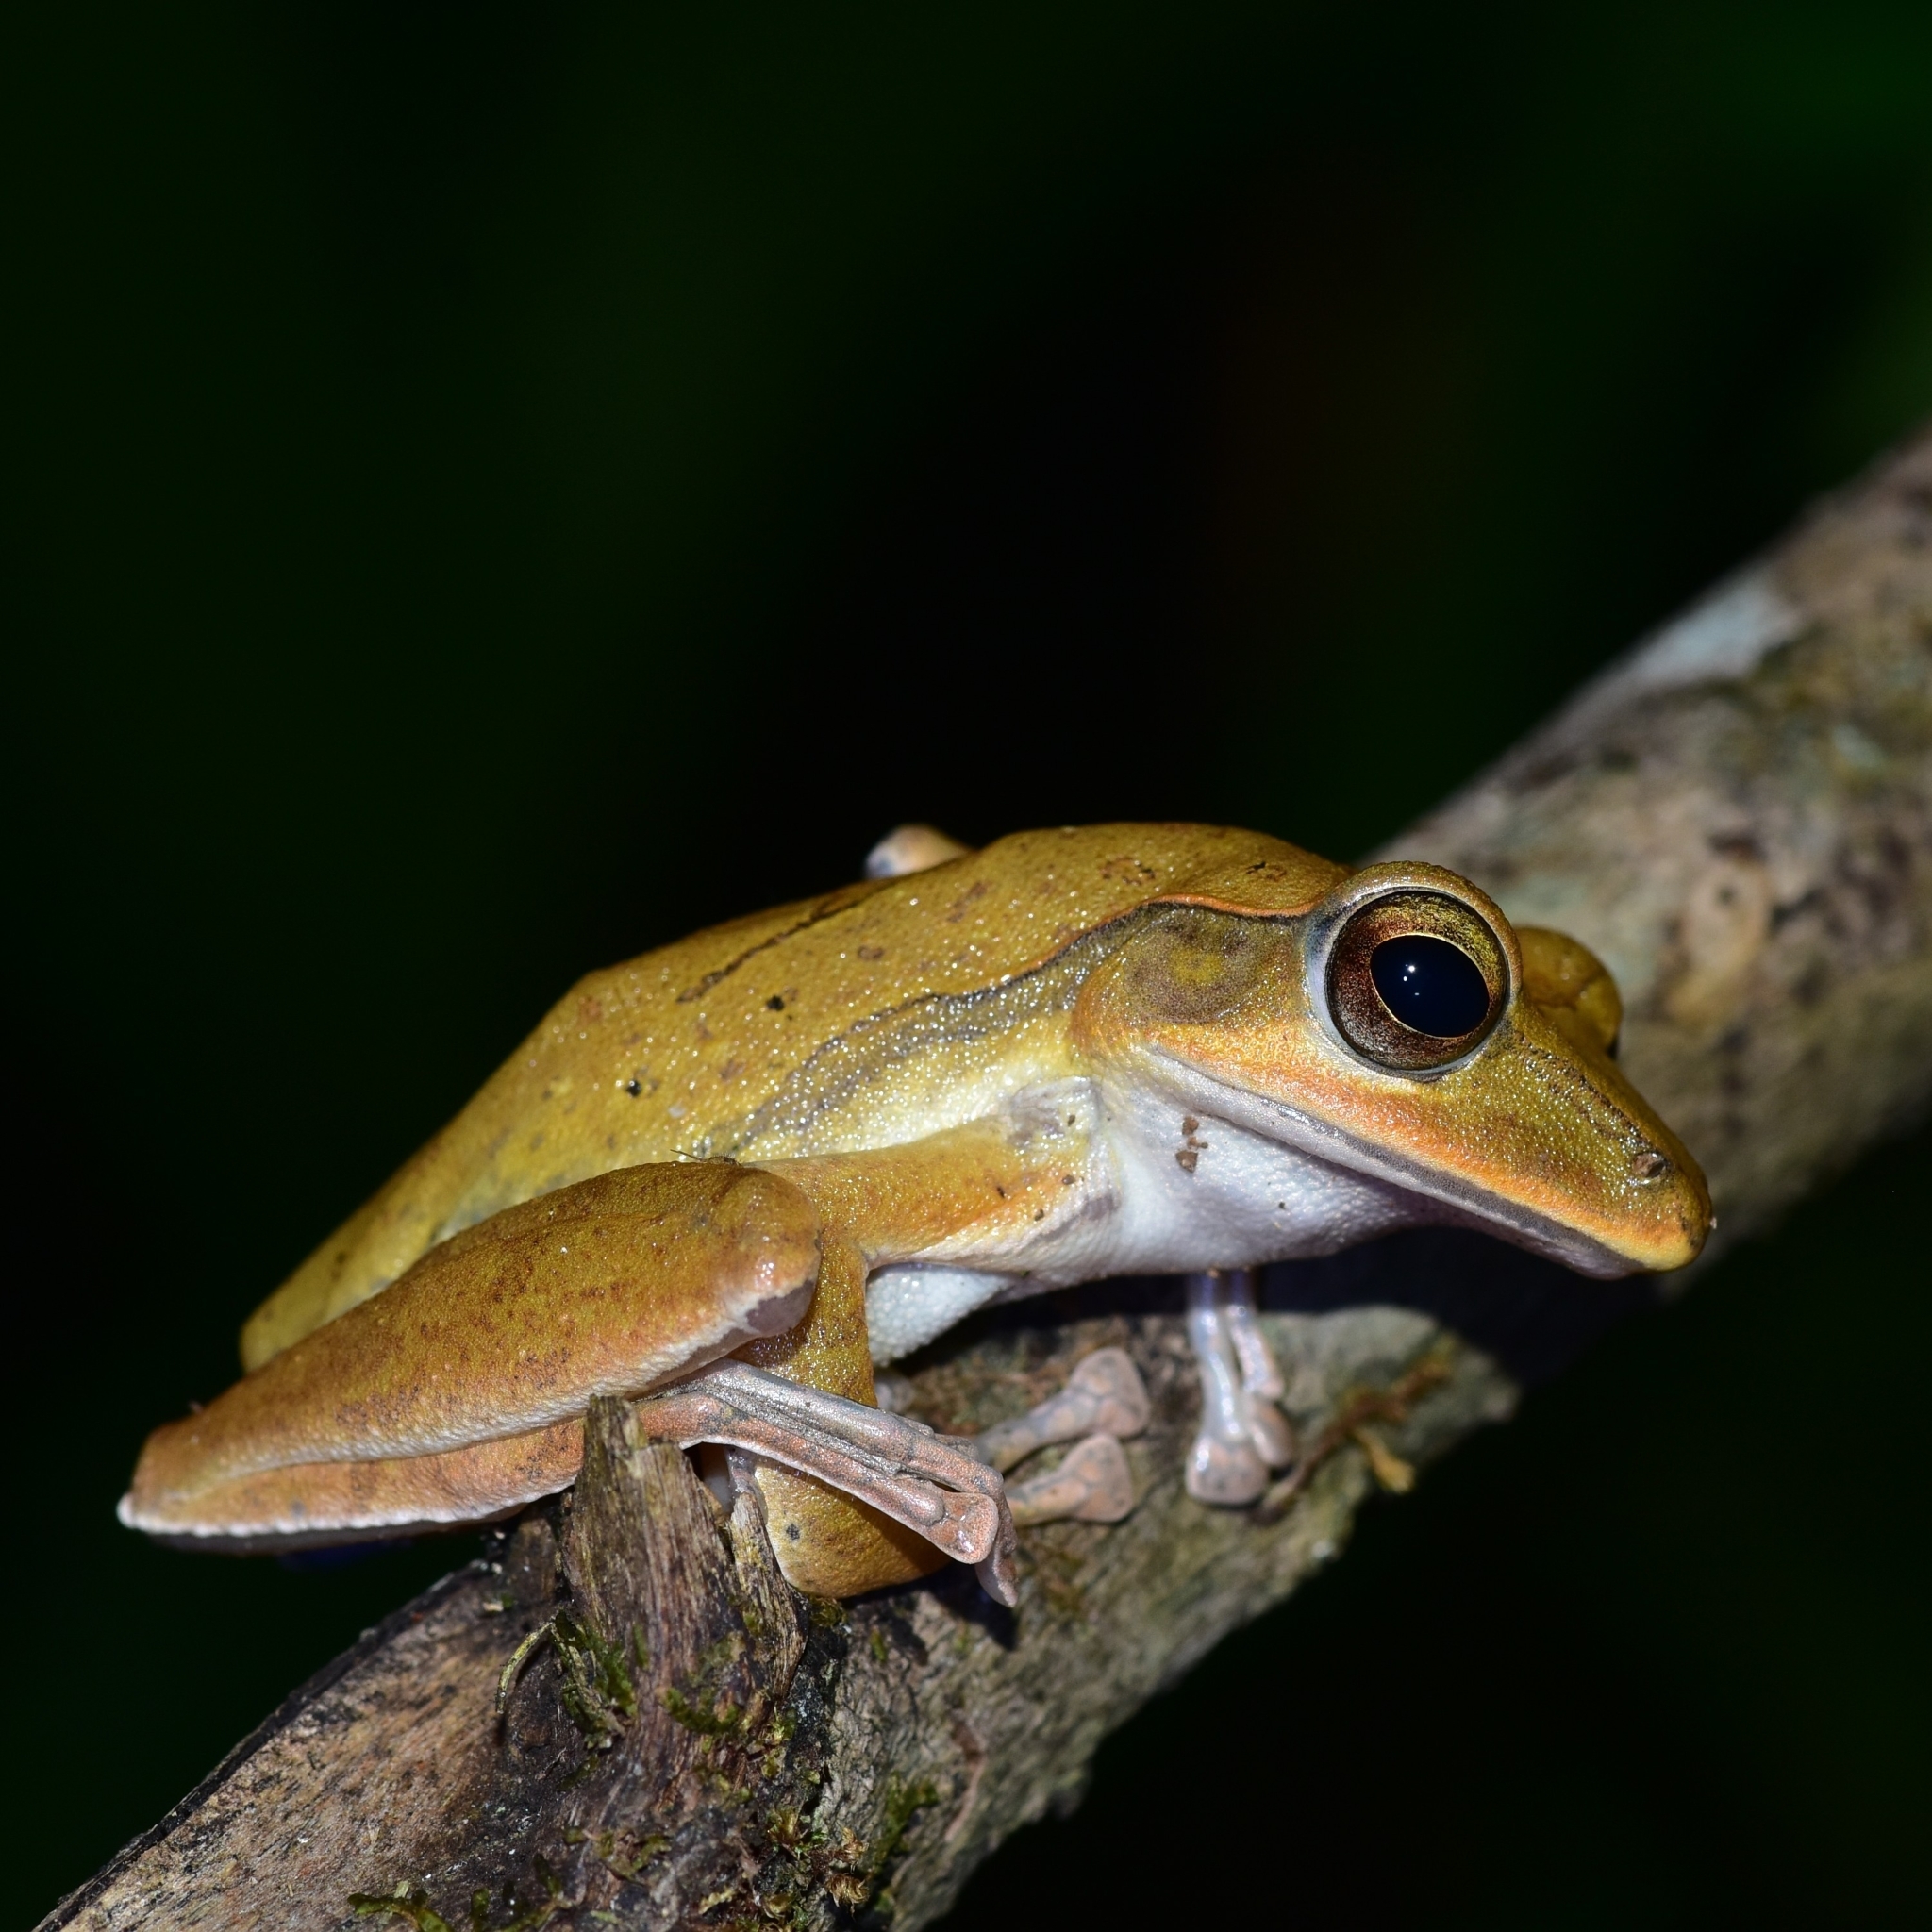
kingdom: Animalia
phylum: Chordata
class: Amphibia
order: Anura
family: Rhacophoridae
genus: Polypedates
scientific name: Polypedates occidentalis
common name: Charpa tree frog
